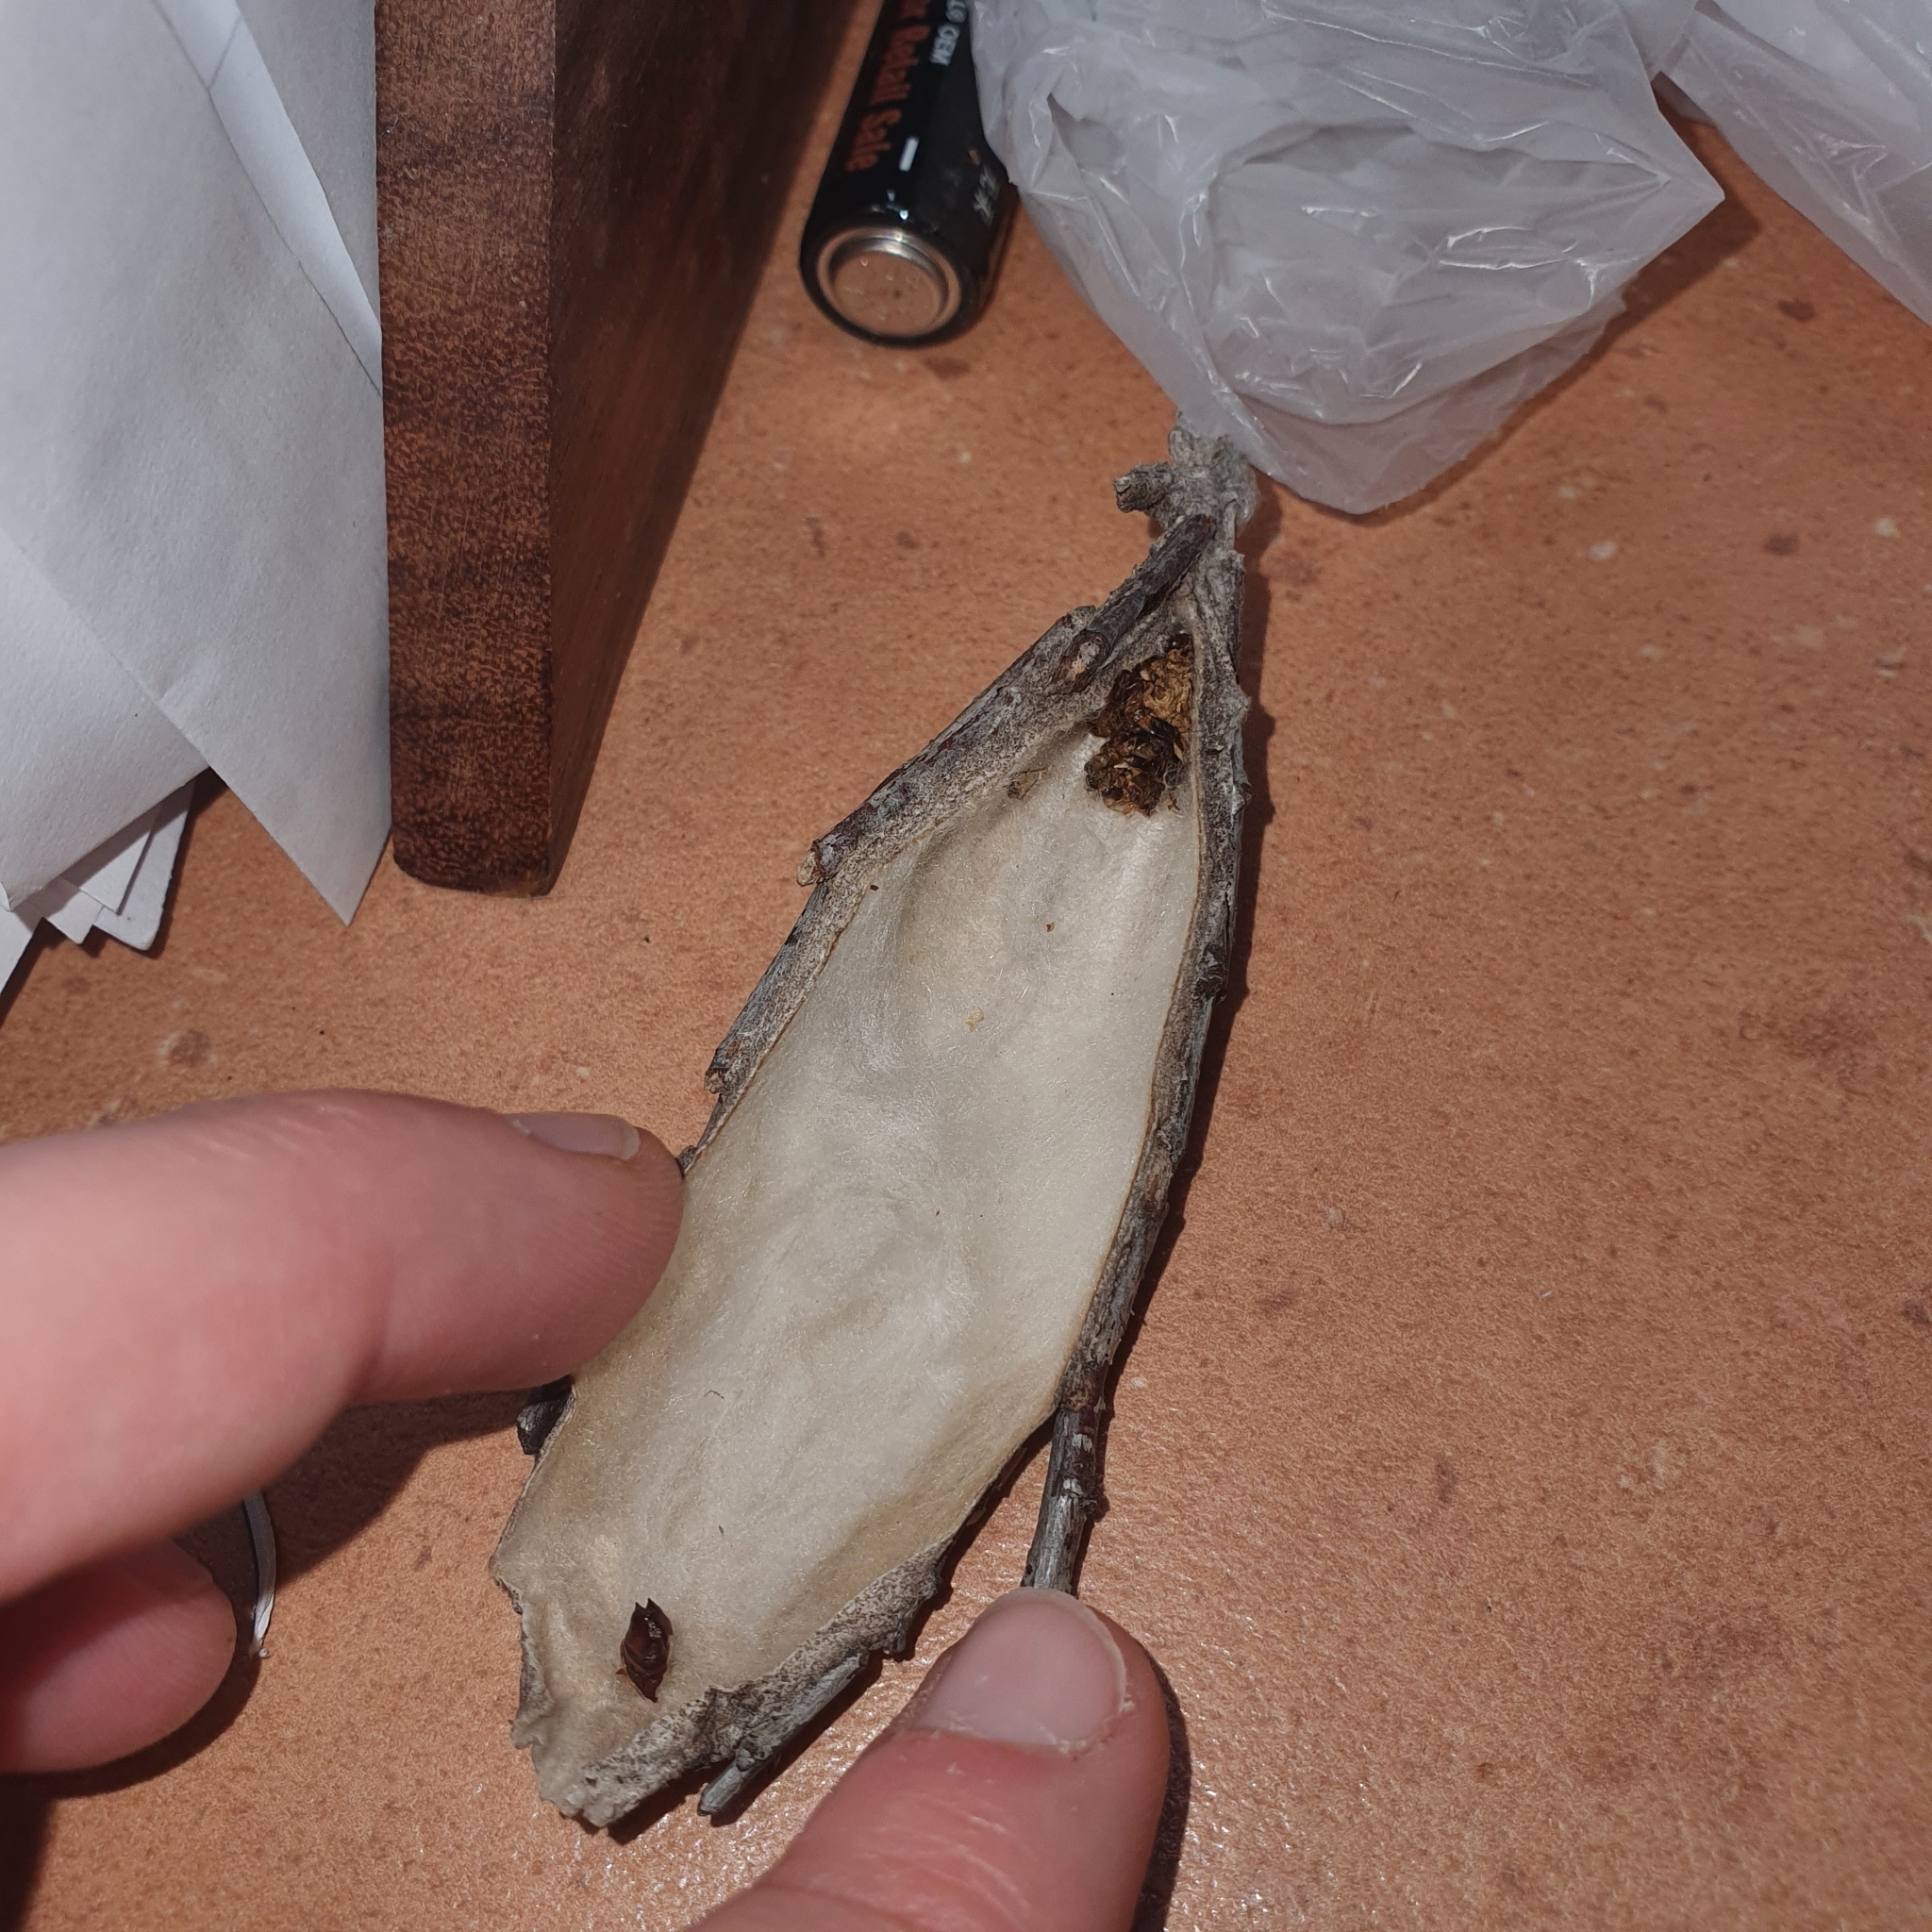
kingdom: Animalia
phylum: Arthropoda
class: Insecta
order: Lepidoptera
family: Psychidae
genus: Metura
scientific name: Metura elongatus
